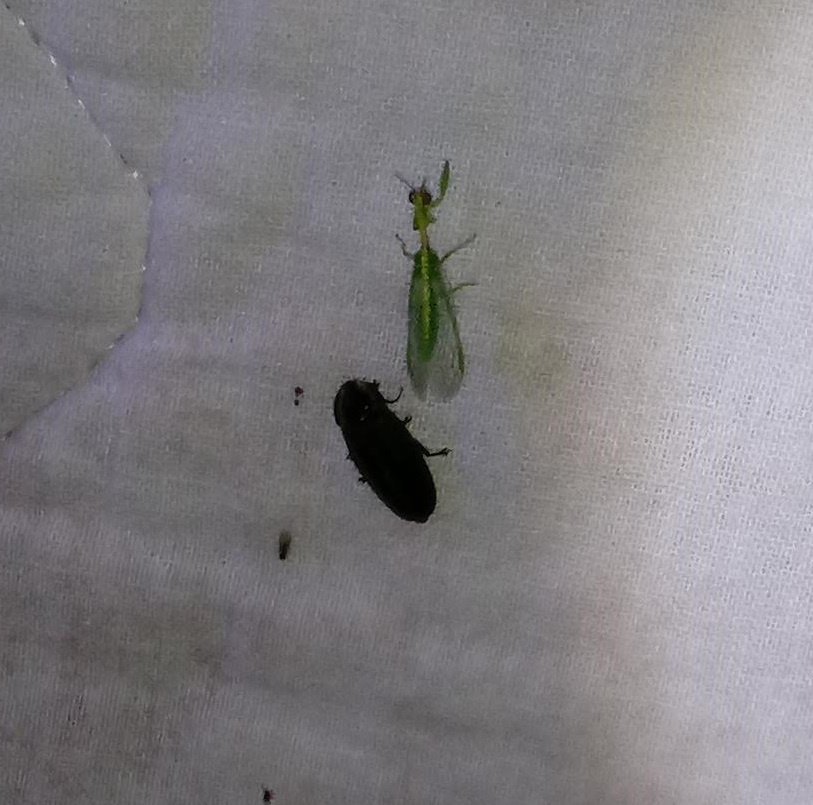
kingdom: Animalia
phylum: Arthropoda
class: Insecta
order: Coleoptera
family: Lampyridae
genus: Photinus
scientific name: Photinus corrusca
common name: Winter firefly
